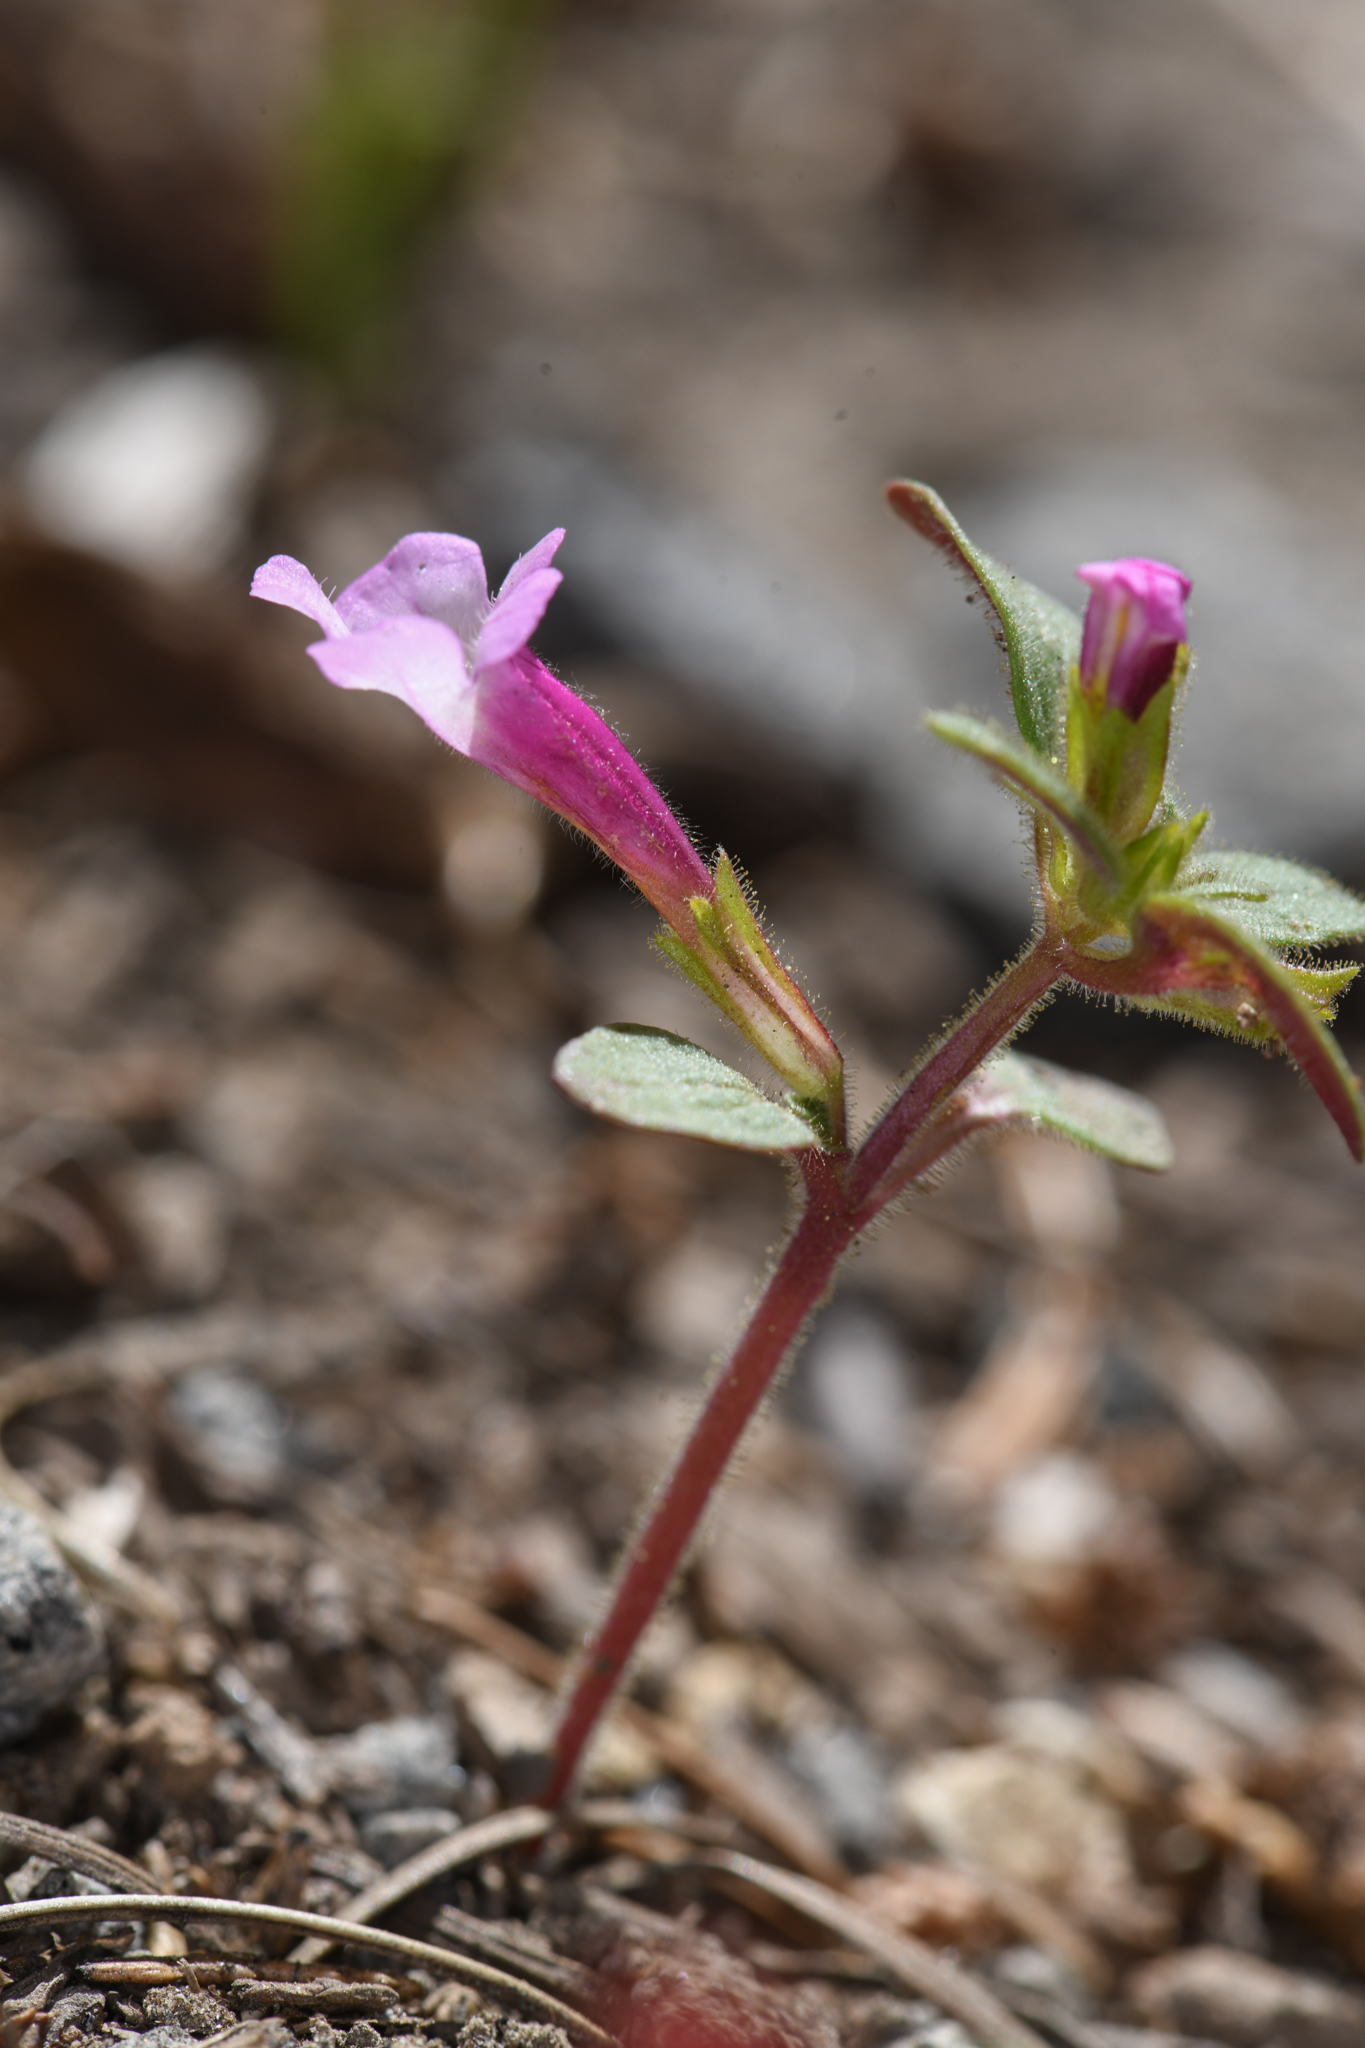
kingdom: Plantae
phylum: Tracheophyta
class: Magnoliopsida
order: Lamiales
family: Phrymaceae
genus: Diplacus
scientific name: Diplacus torreyi
